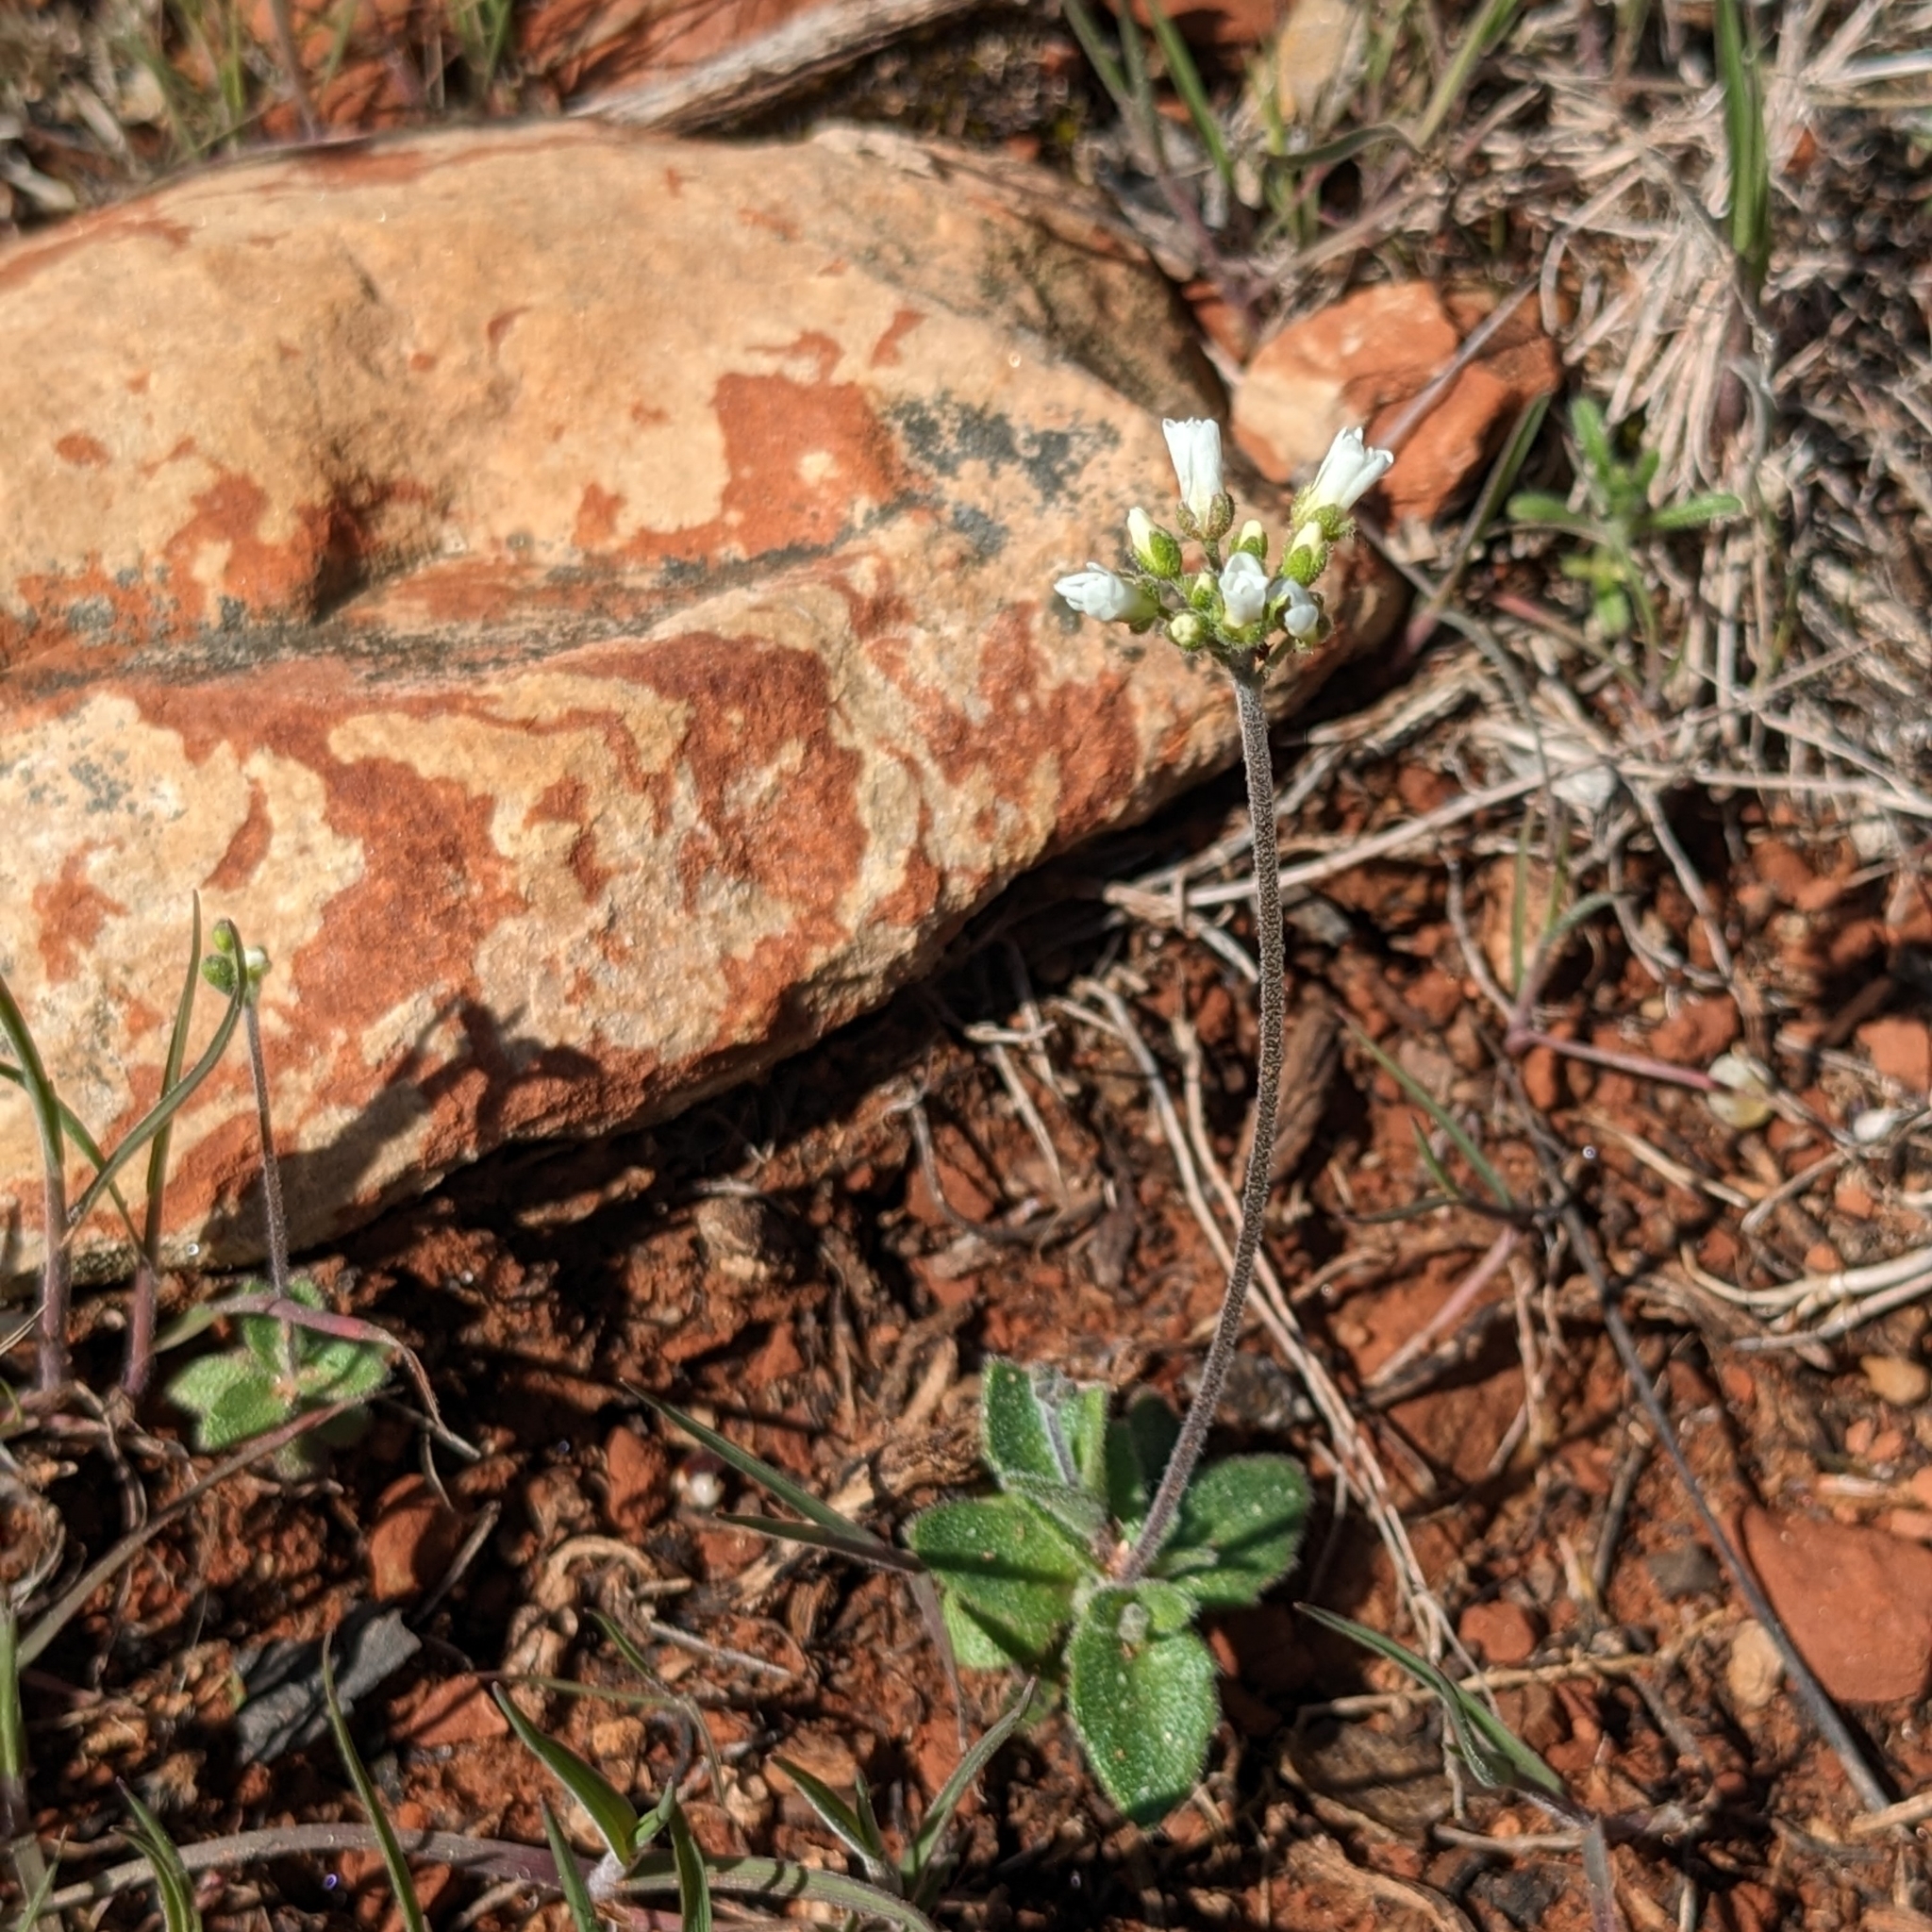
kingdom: Plantae
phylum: Tracheophyta
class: Magnoliopsida
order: Brassicales
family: Brassicaceae
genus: Tomostima
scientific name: Tomostima cuneifolia
